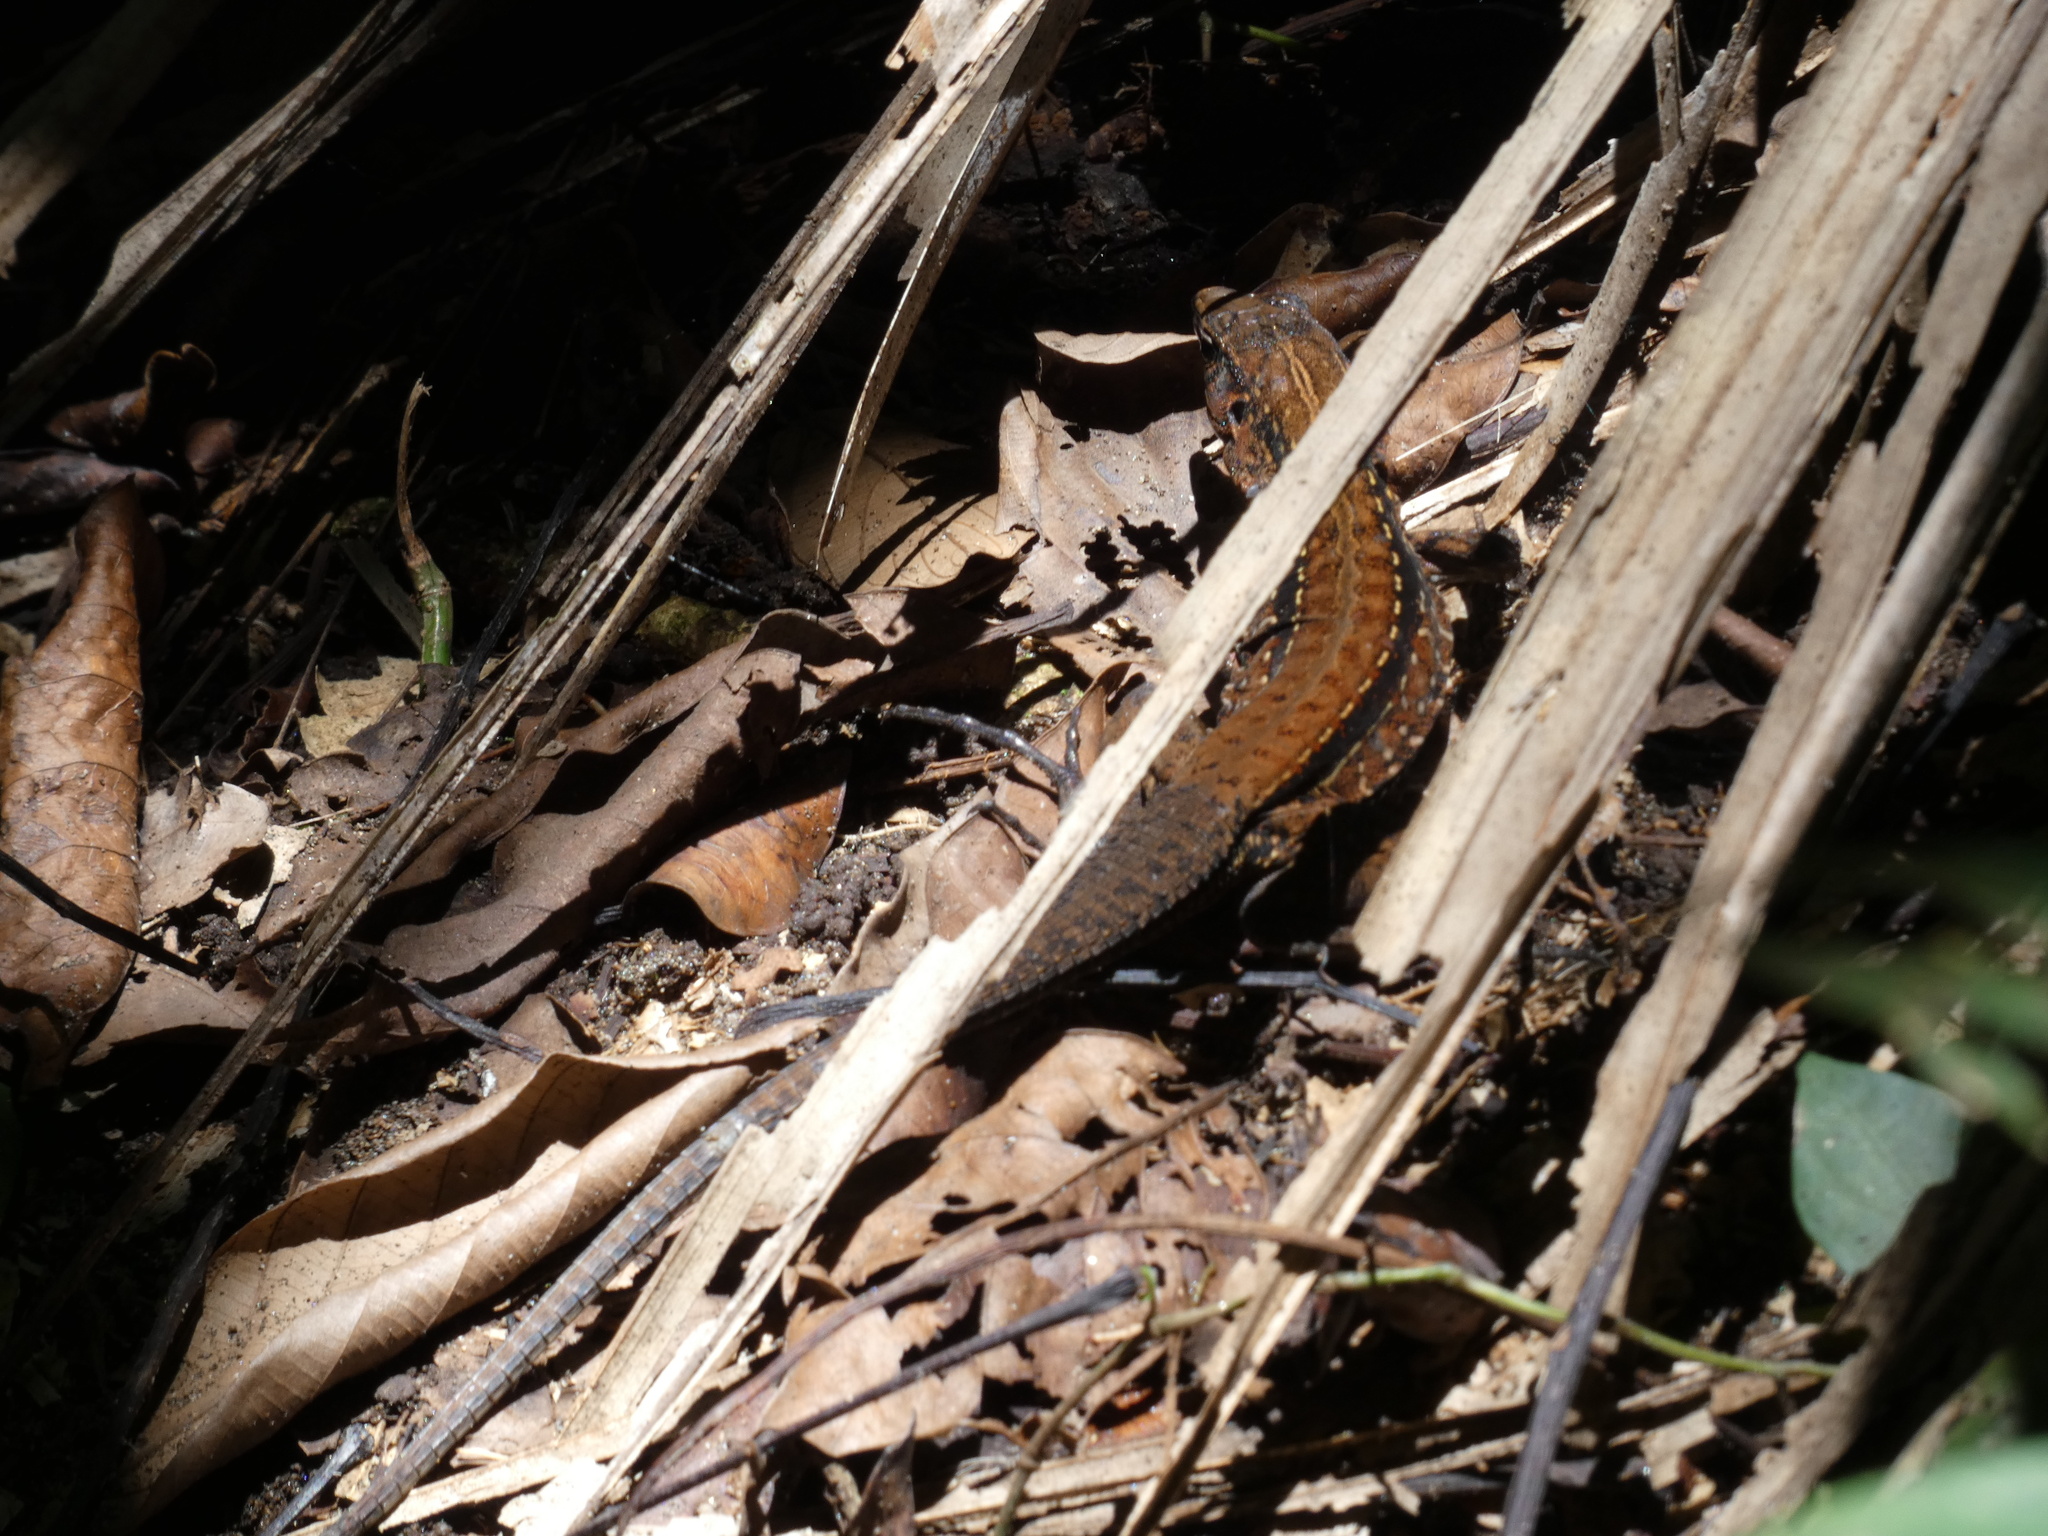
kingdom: Animalia
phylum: Chordata
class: Squamata
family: Teiidae
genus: Holcosus
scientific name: Holcosus festivus
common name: Middle american ameiva
